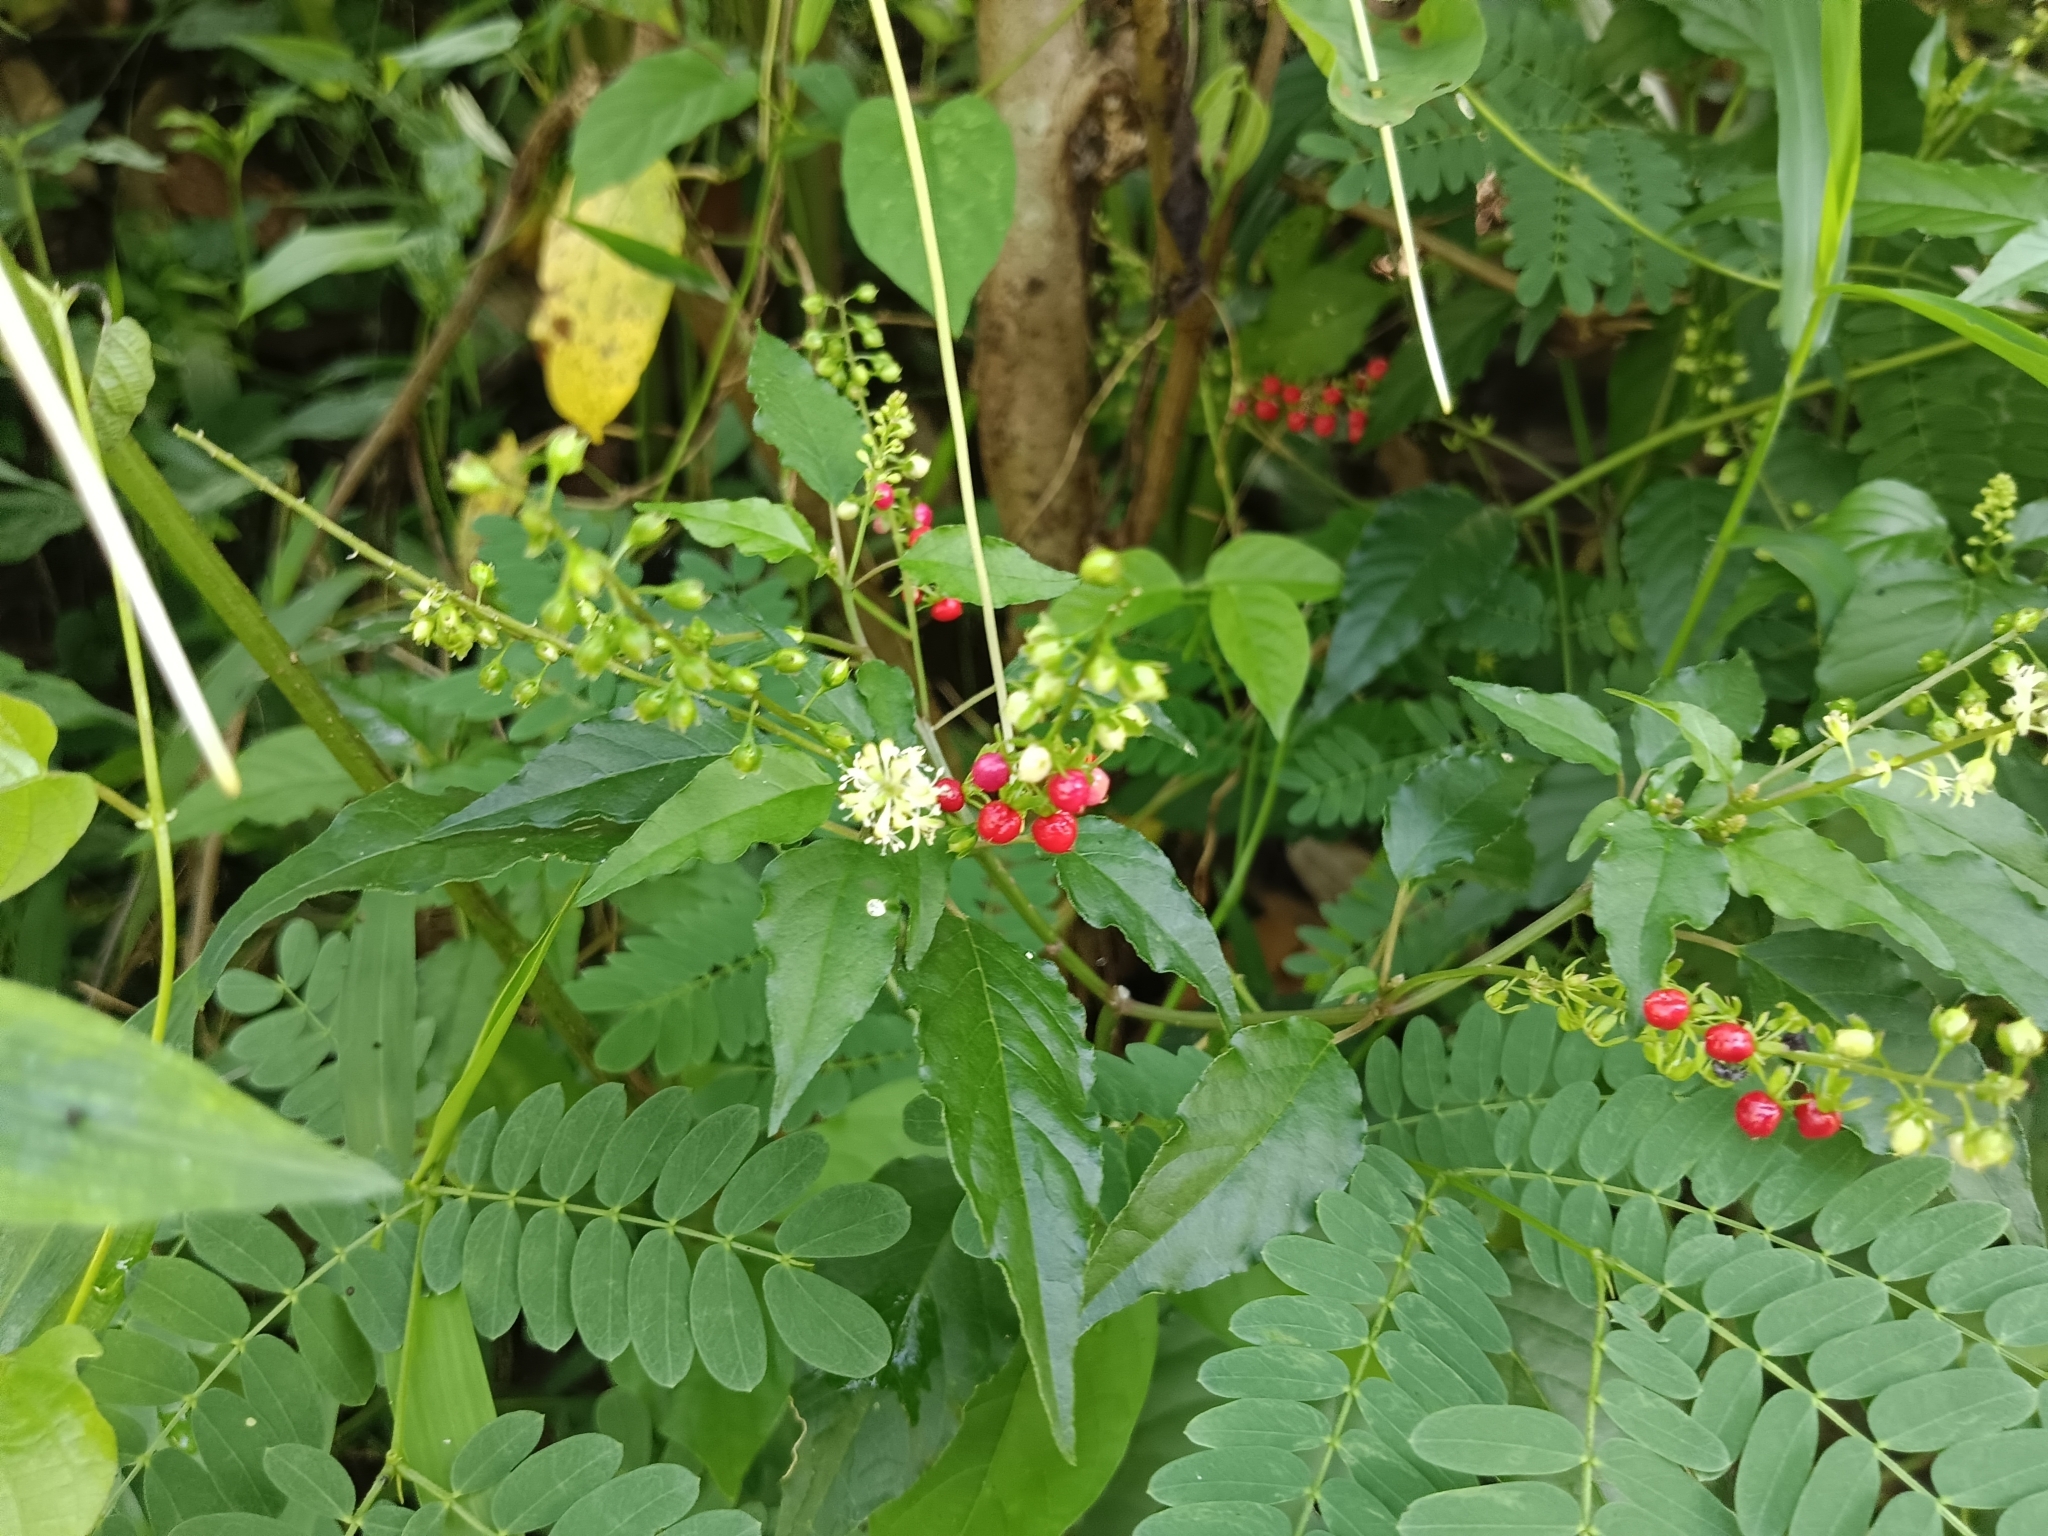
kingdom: Plantae
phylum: Tracheophyta
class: Magnoliopsida
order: Caryophyllales
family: Phytolaccaceae
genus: Rivina
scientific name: Rivina humilis
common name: Rougeplant
